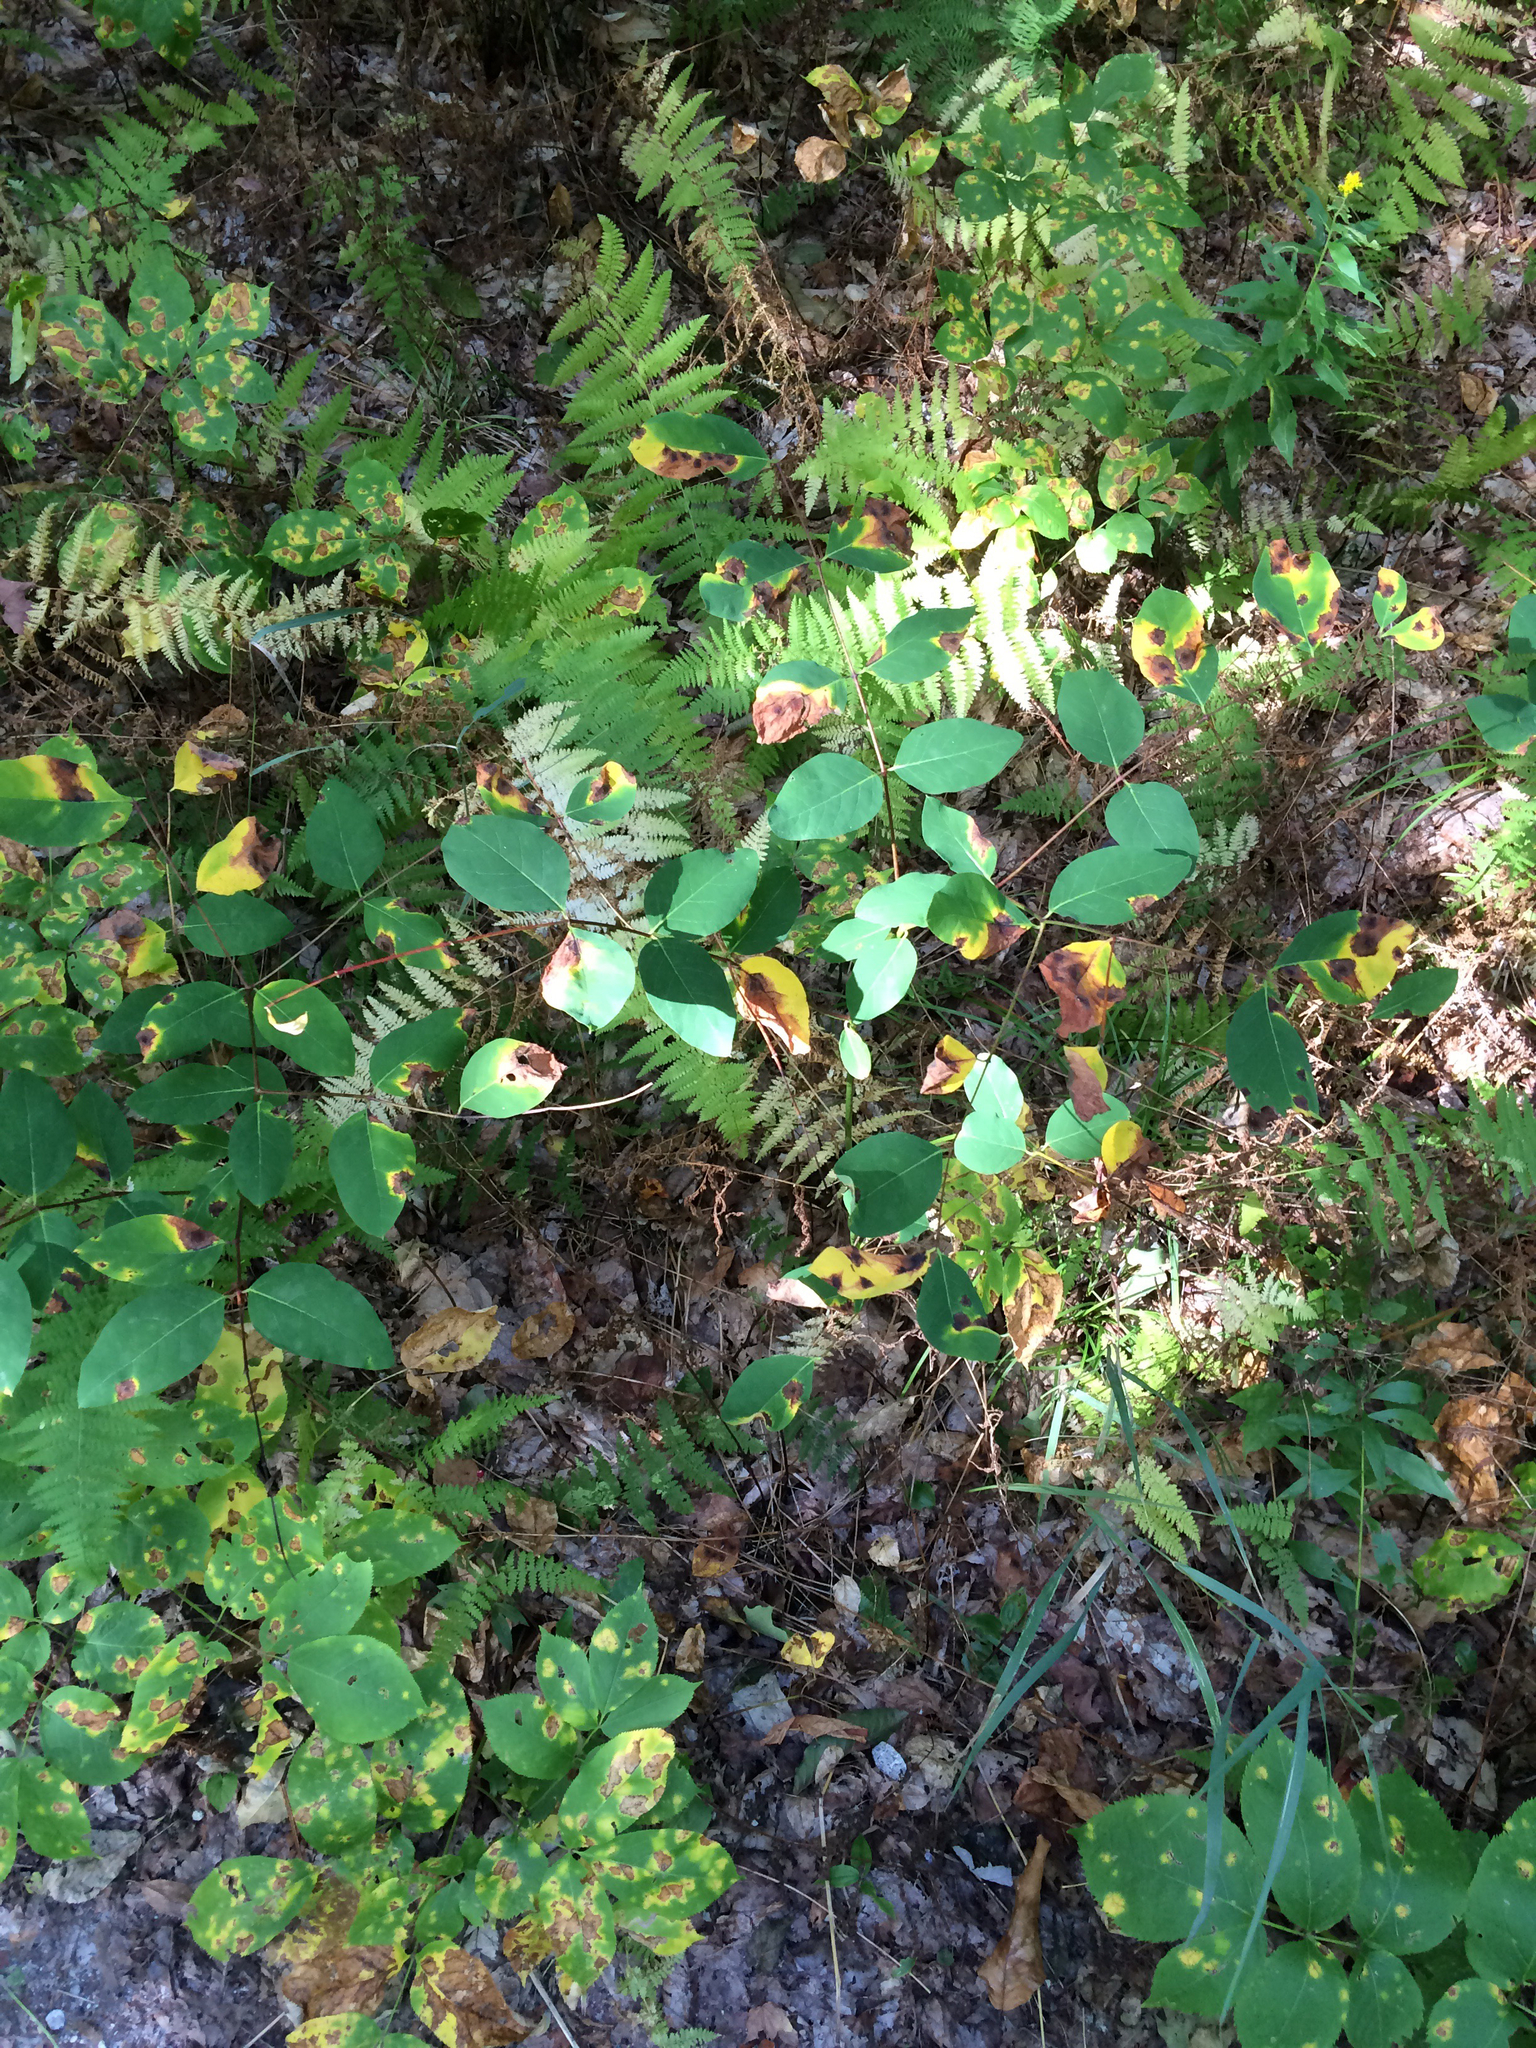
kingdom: Plantae
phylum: Tracheophyta
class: Magnoliopsida
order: Gentianales
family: Apocynaceae
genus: Apocynum
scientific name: Apocynum androsaemifolium
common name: Spreading dogbane
